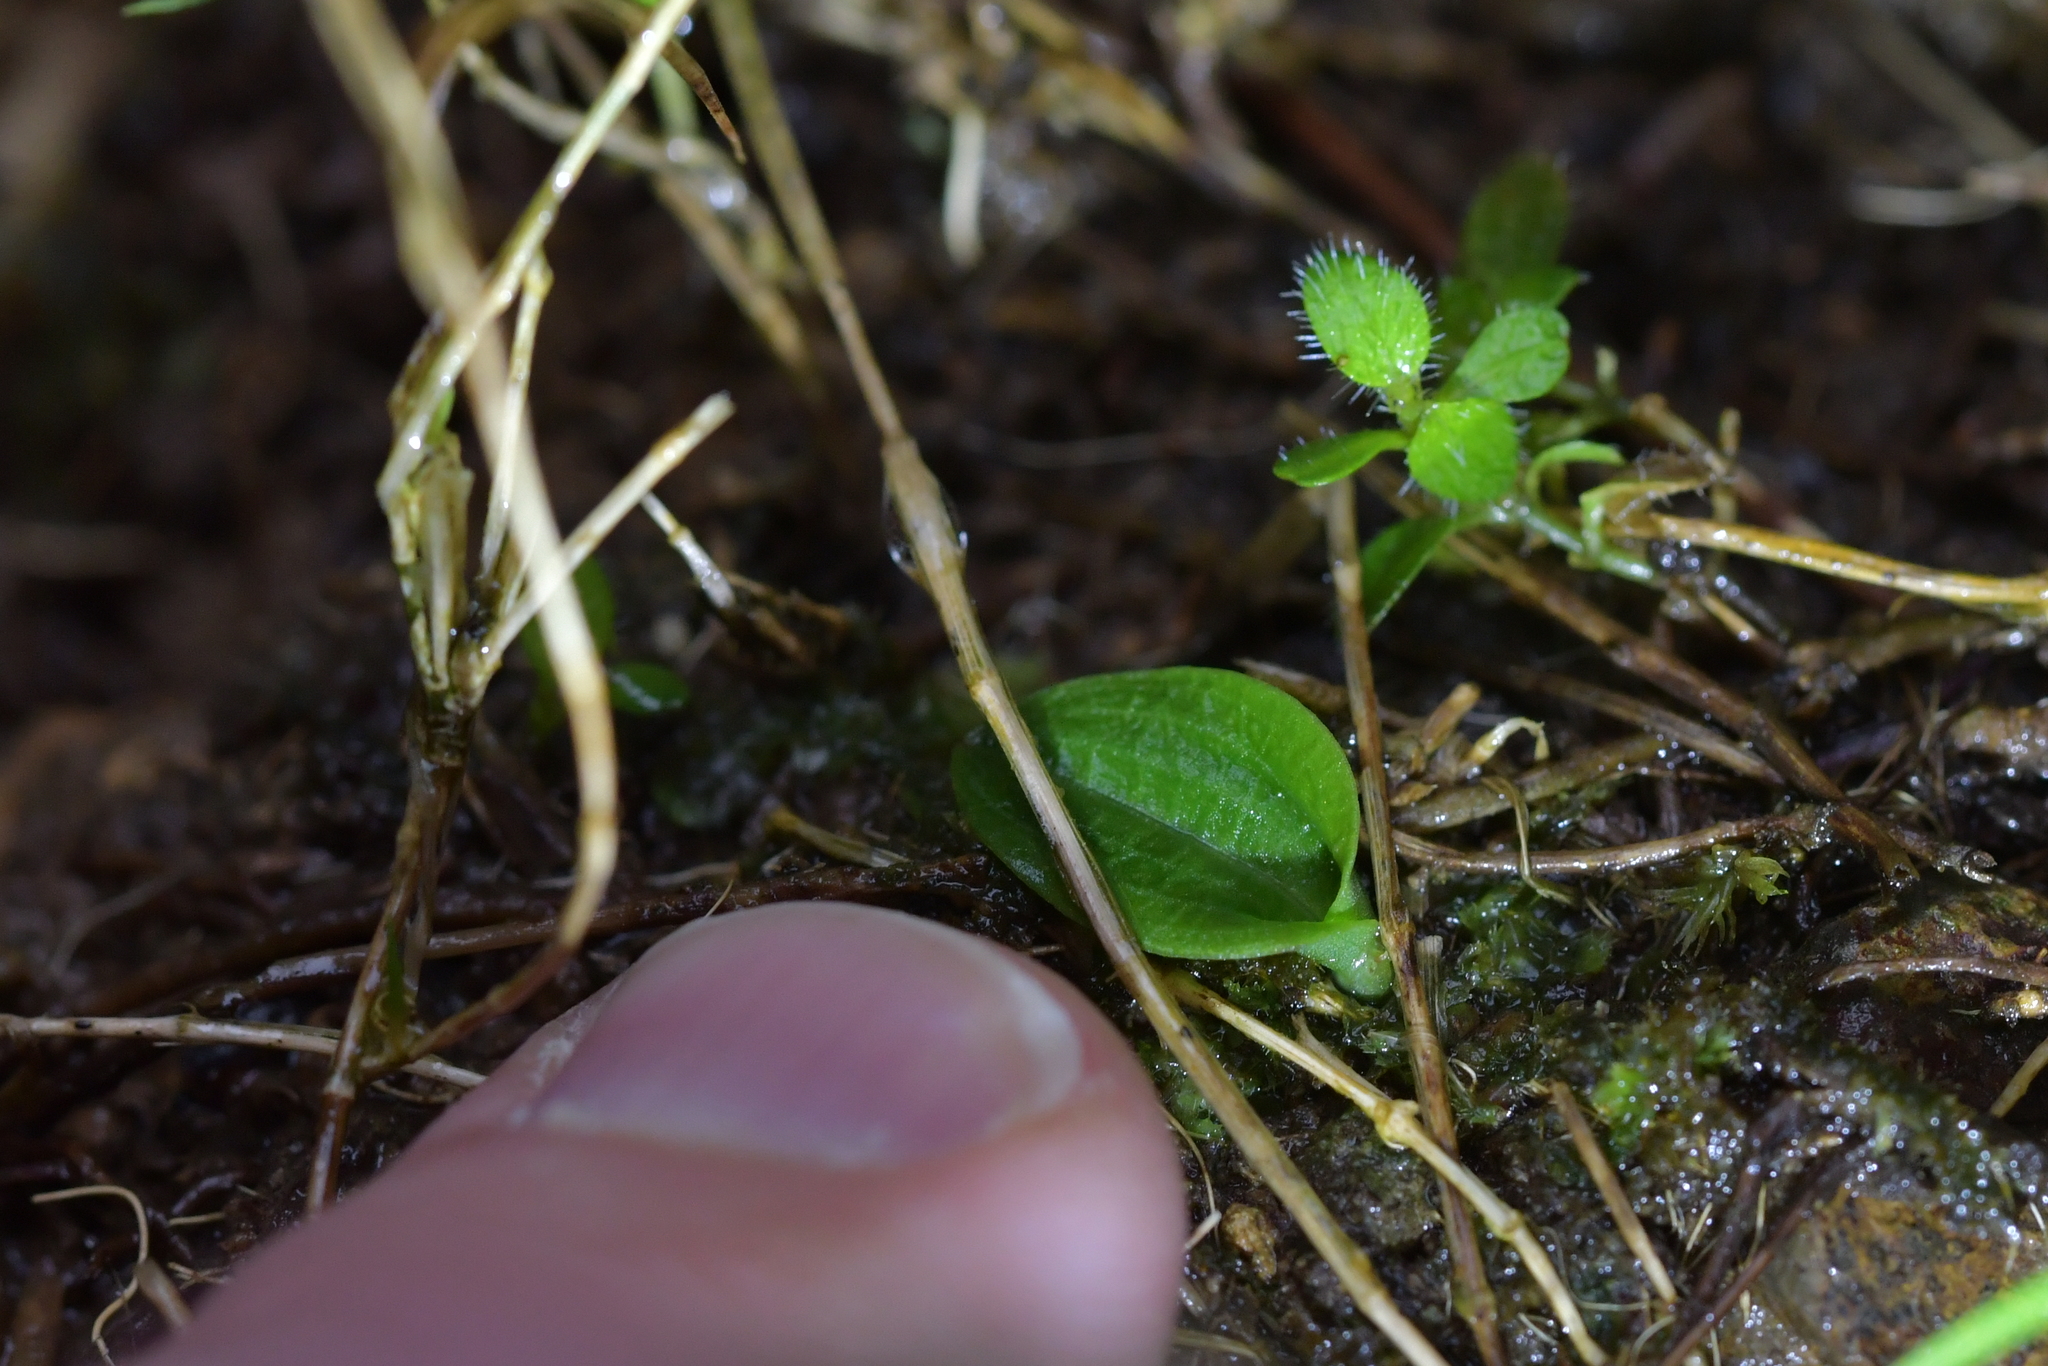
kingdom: Plantae
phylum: Tracheophyta
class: Liliopsida
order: Asparagales
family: Orchidaceae
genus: Chiloglottis
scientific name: Chiloglottis cornuta
